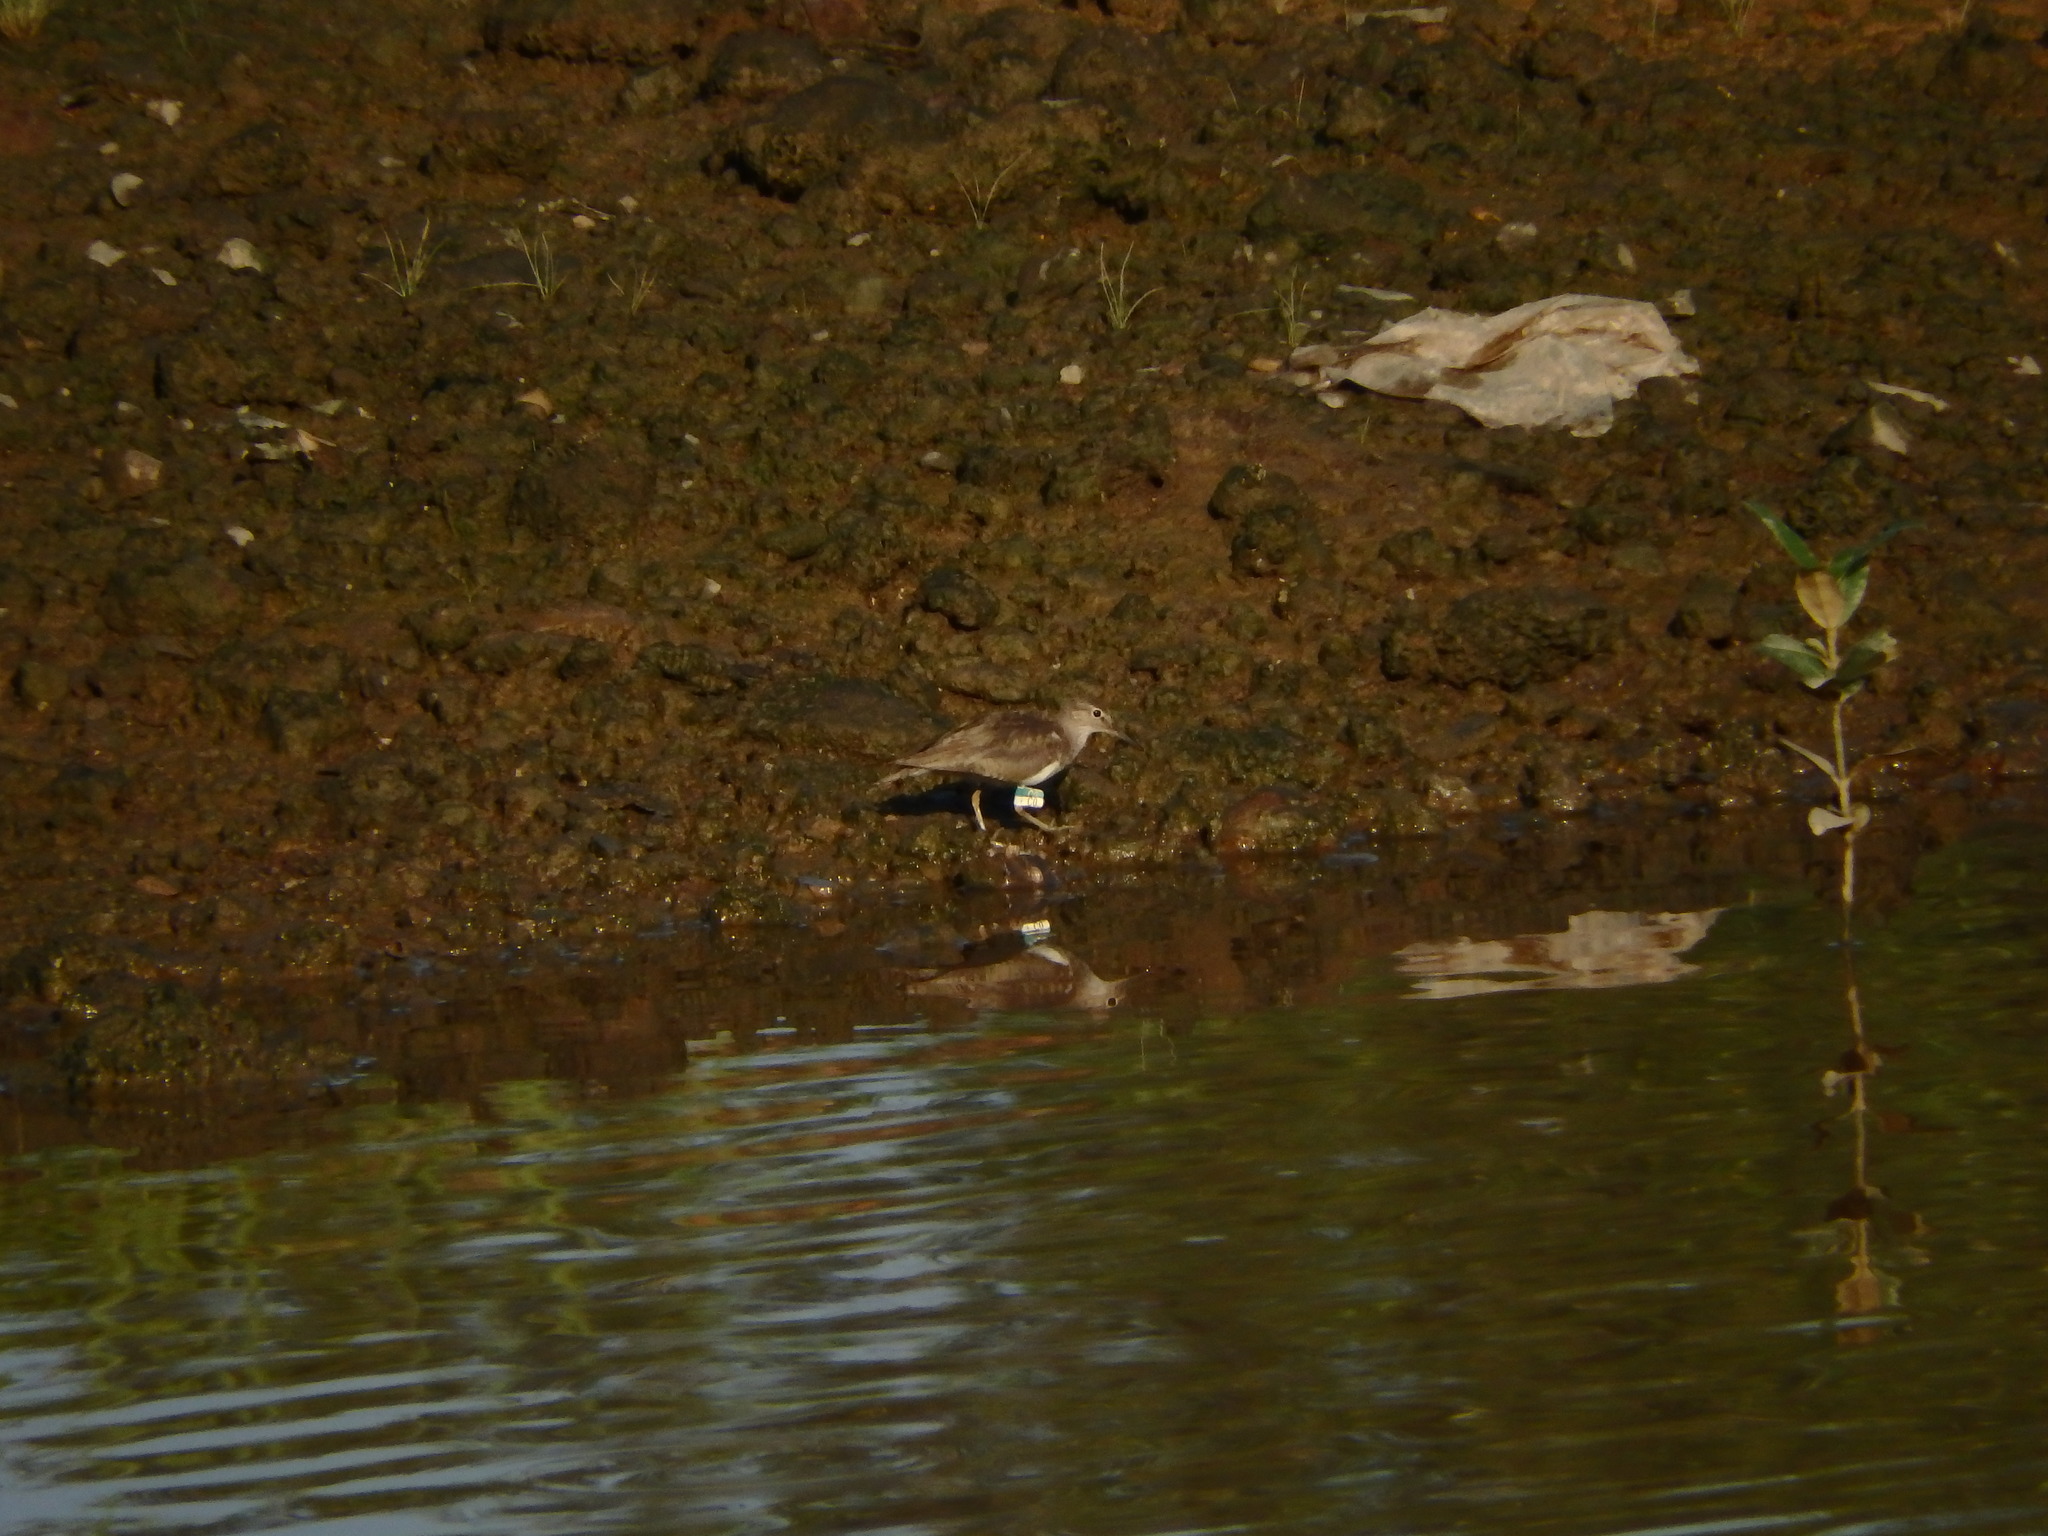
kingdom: Animalia
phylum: Chordata
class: Aves
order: Charadriiformes
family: Scolopacidae
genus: Actitis
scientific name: Actitis hypoleucos
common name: Common sandpiper
